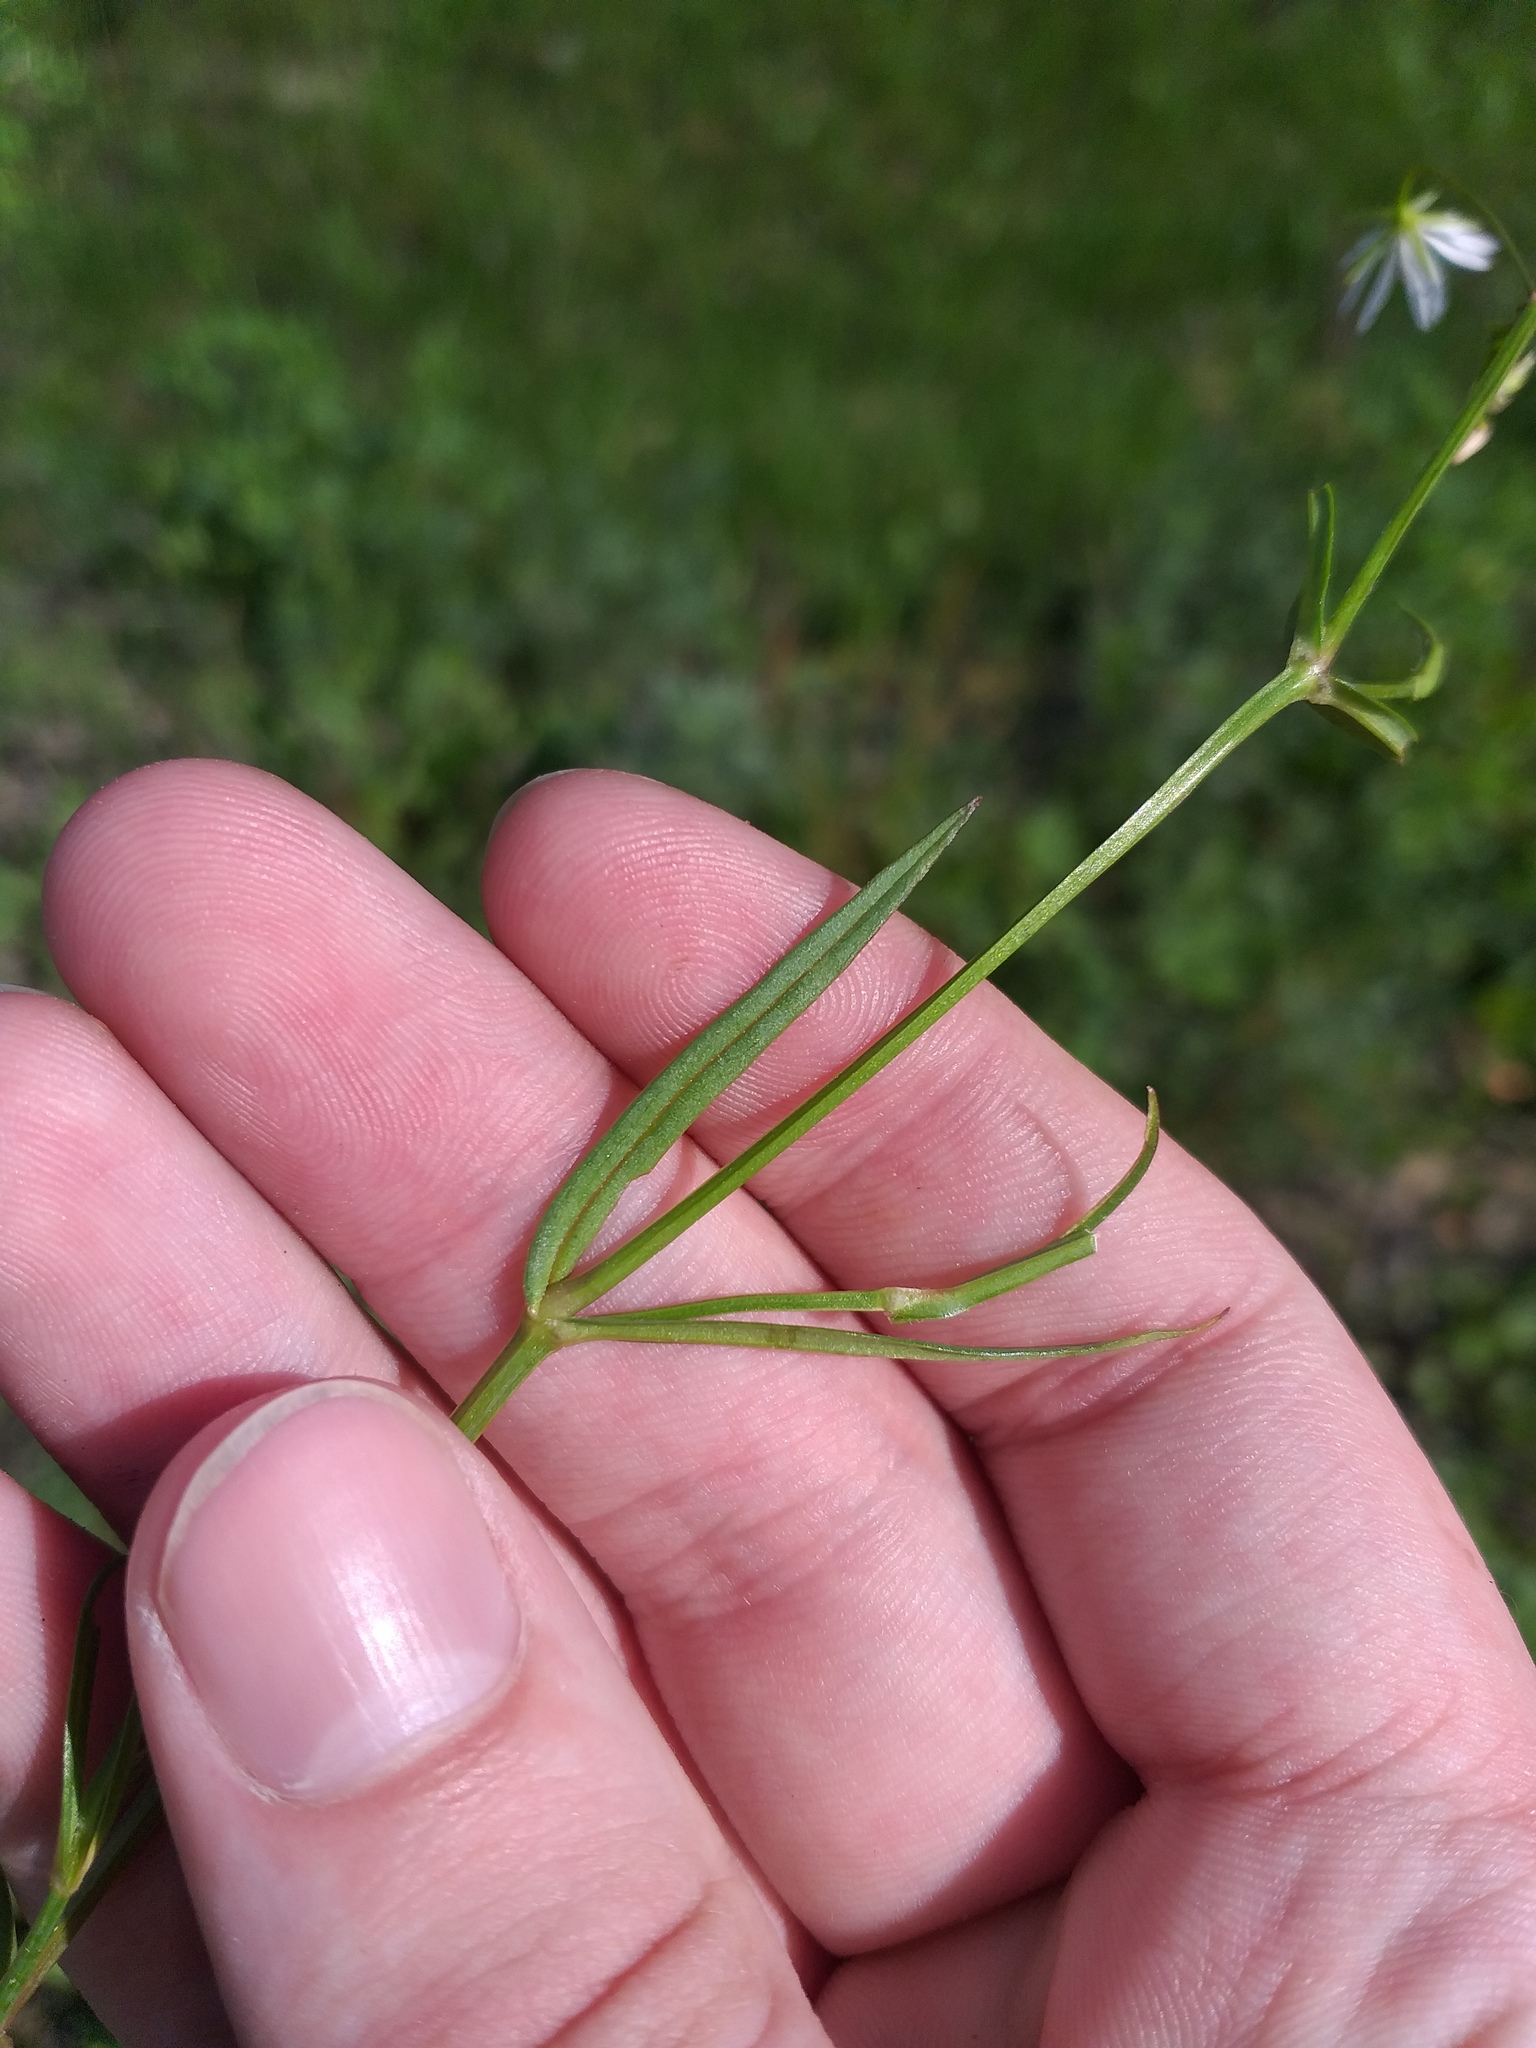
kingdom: Plantae
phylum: Tracheophyta
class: Magnoliopsida
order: Caryophyllales
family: Caryophyllaceae
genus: Stellaria
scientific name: Stellaria graminea
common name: Grass-like starwort
